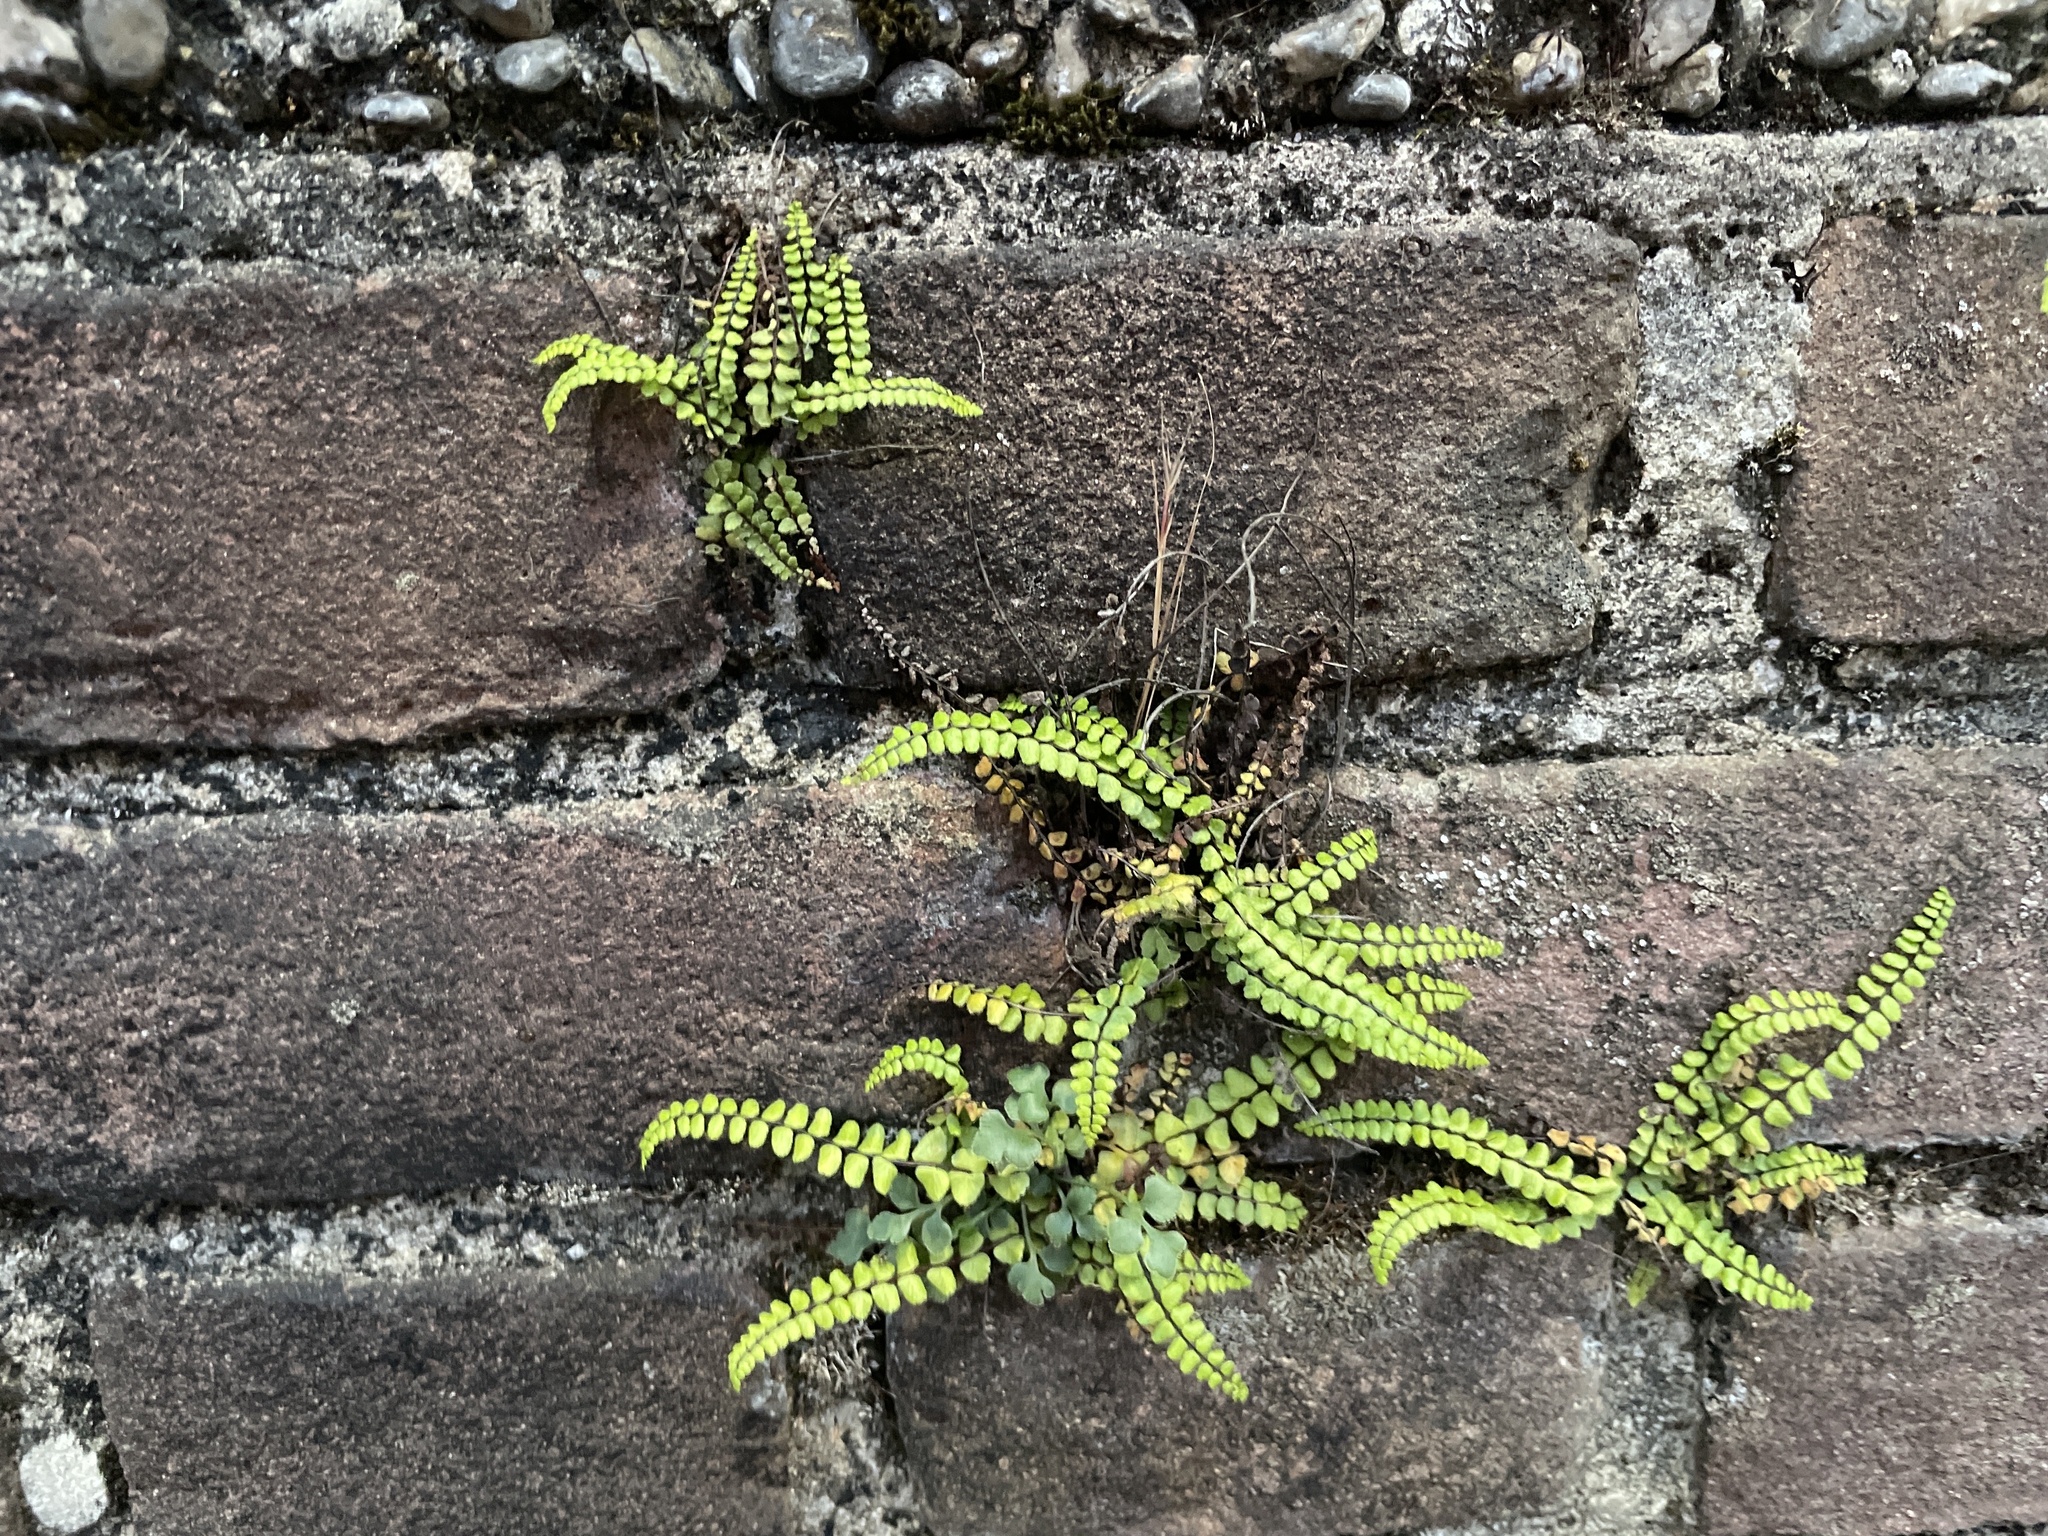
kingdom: Plantae
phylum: Tracheophyta
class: Polypodiopsida
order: Polypodiales
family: Aspleniaceae
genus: Asplenium
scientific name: Asplenium trichomanes
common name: Maidenhair spleenwort
